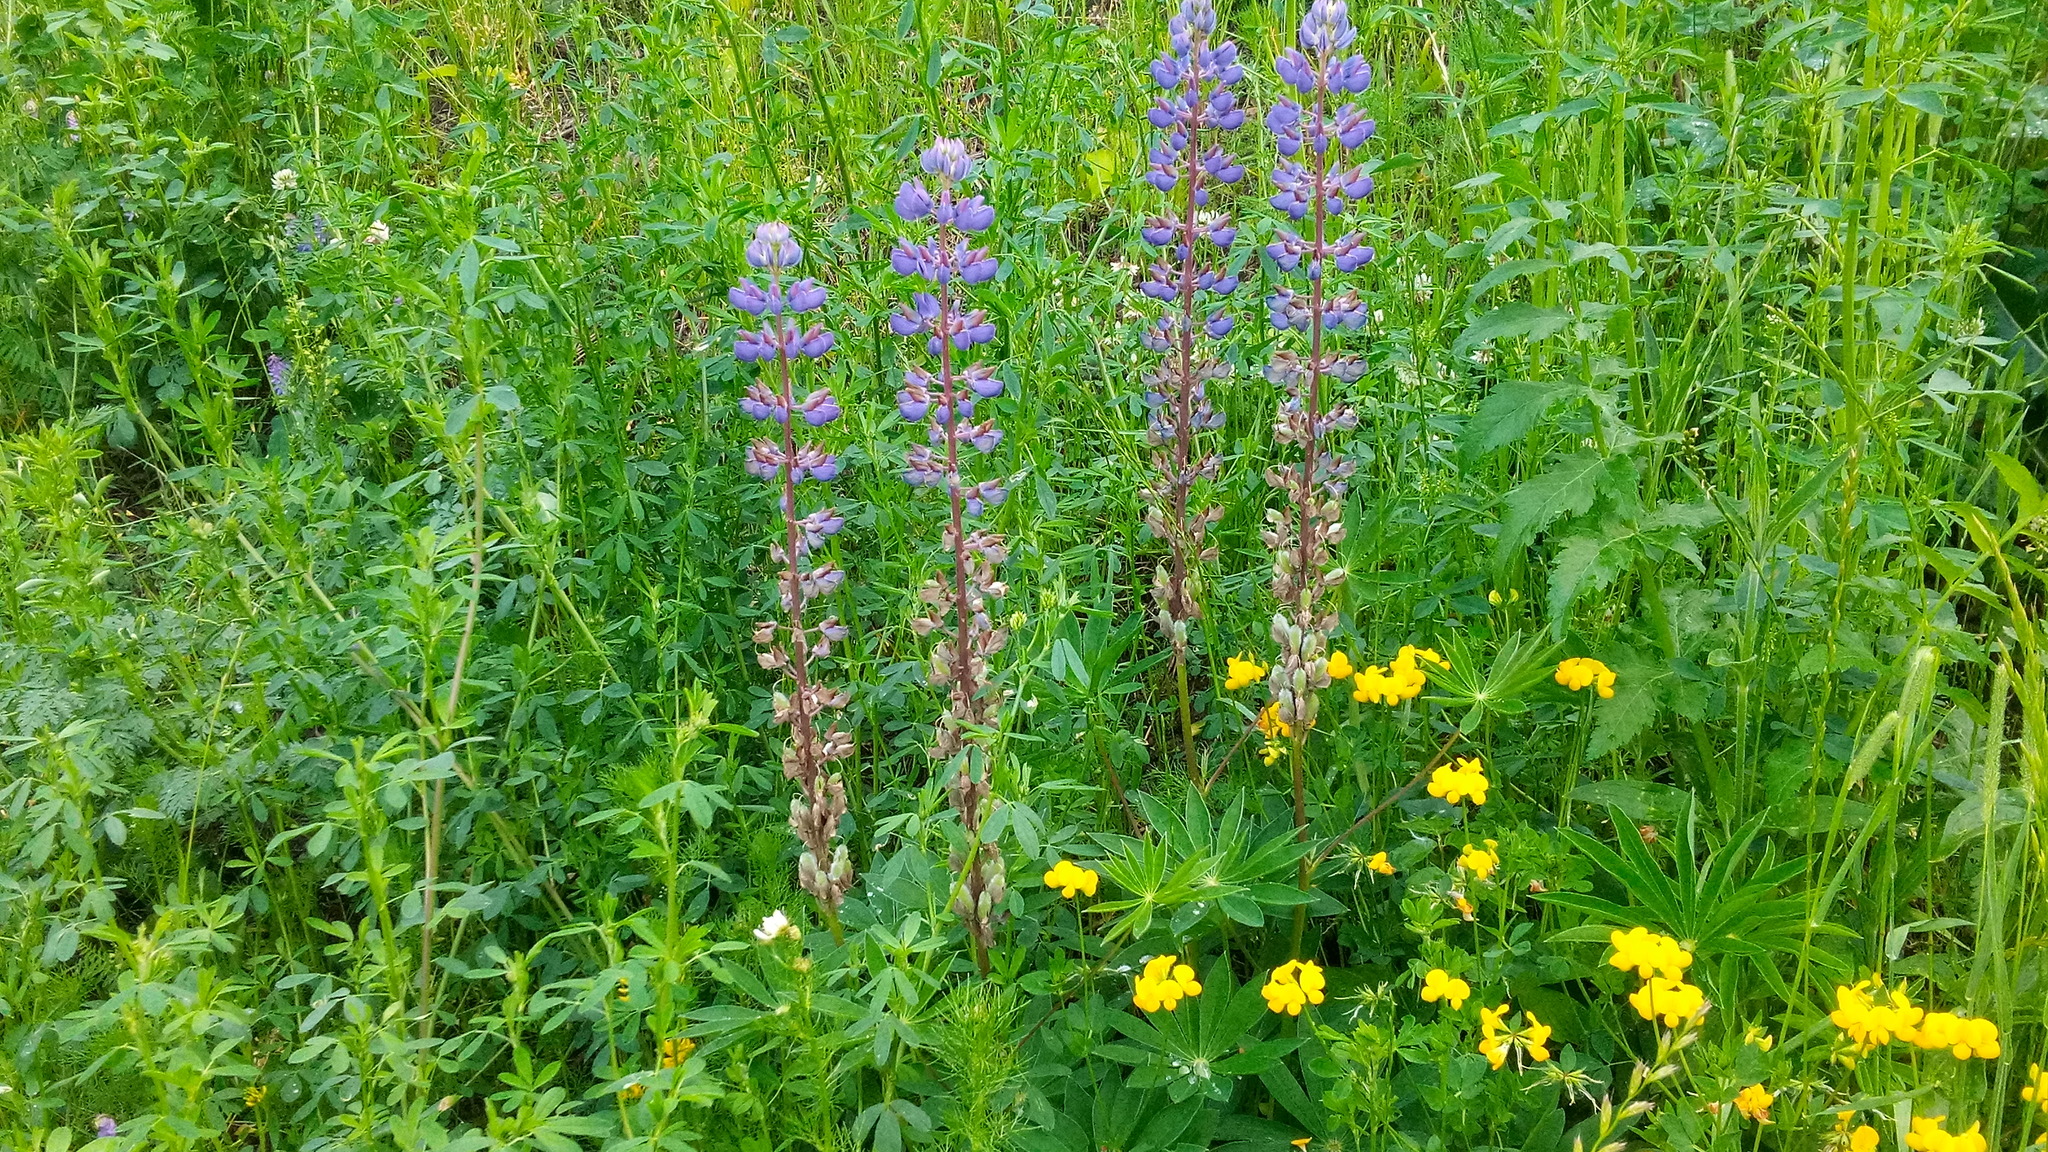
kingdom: Plantae
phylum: Tracheophyta
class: Magnoliopsida
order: Fabales
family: Fabaceae
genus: Lupinus
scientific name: Lupinus polyphyllus
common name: Garden lupin
